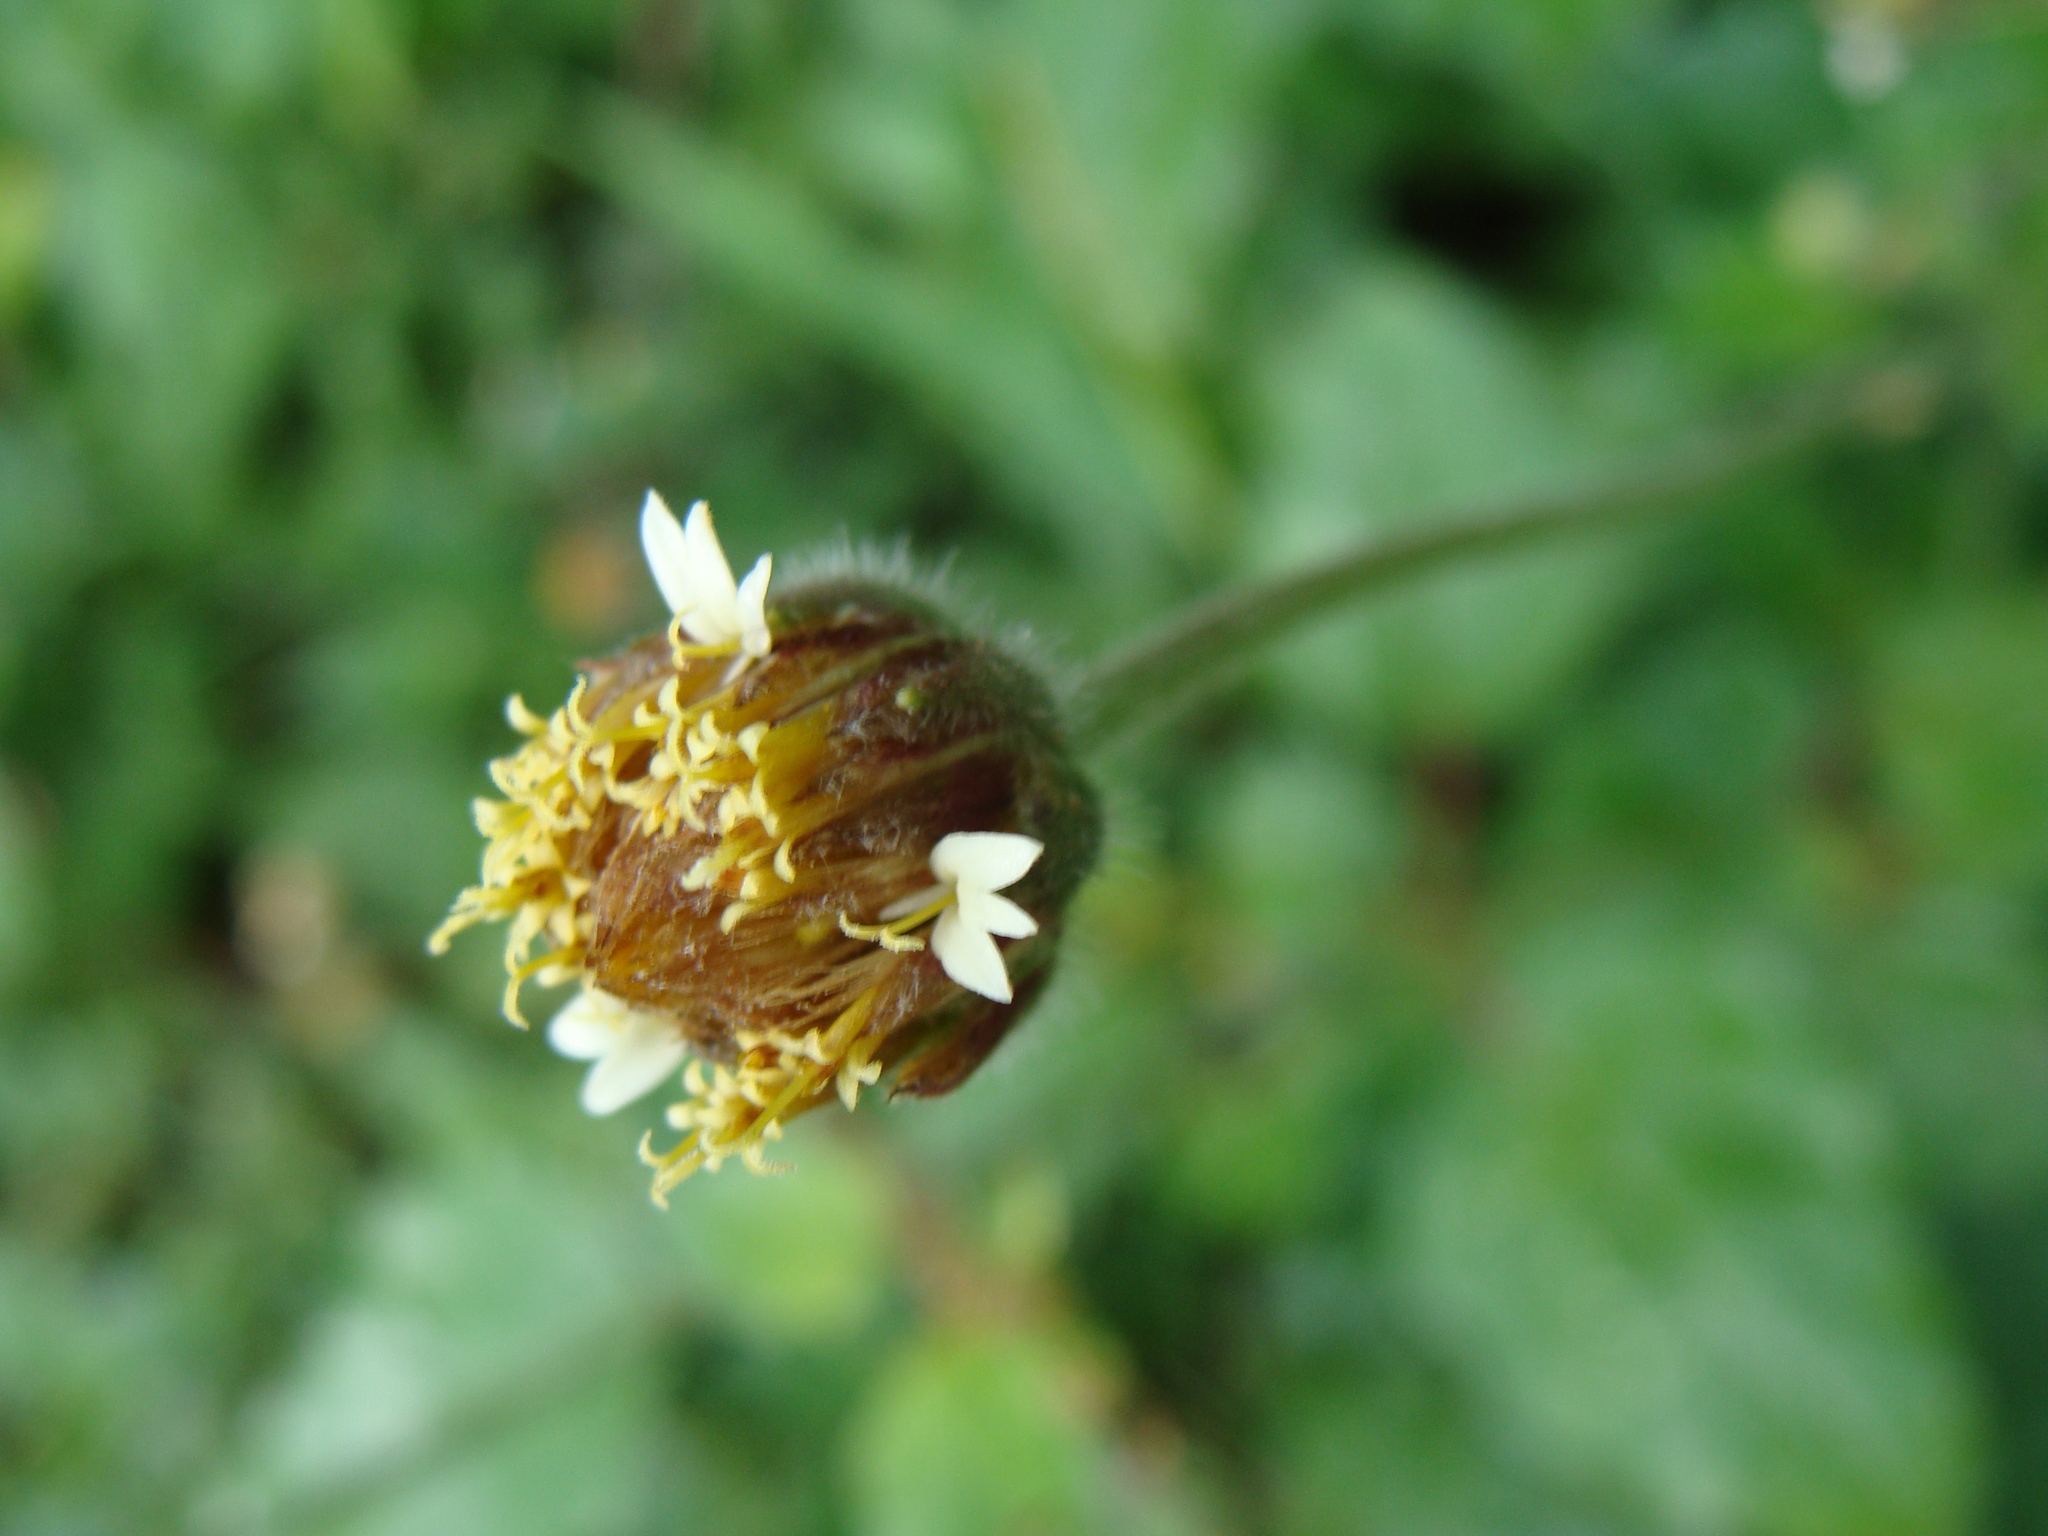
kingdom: Plantae
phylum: Tracheophyta
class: Magnoliopsida
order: Asterales
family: Asteraceae
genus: Tridax
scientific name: Tridax procumbens
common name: Coatbuttons
